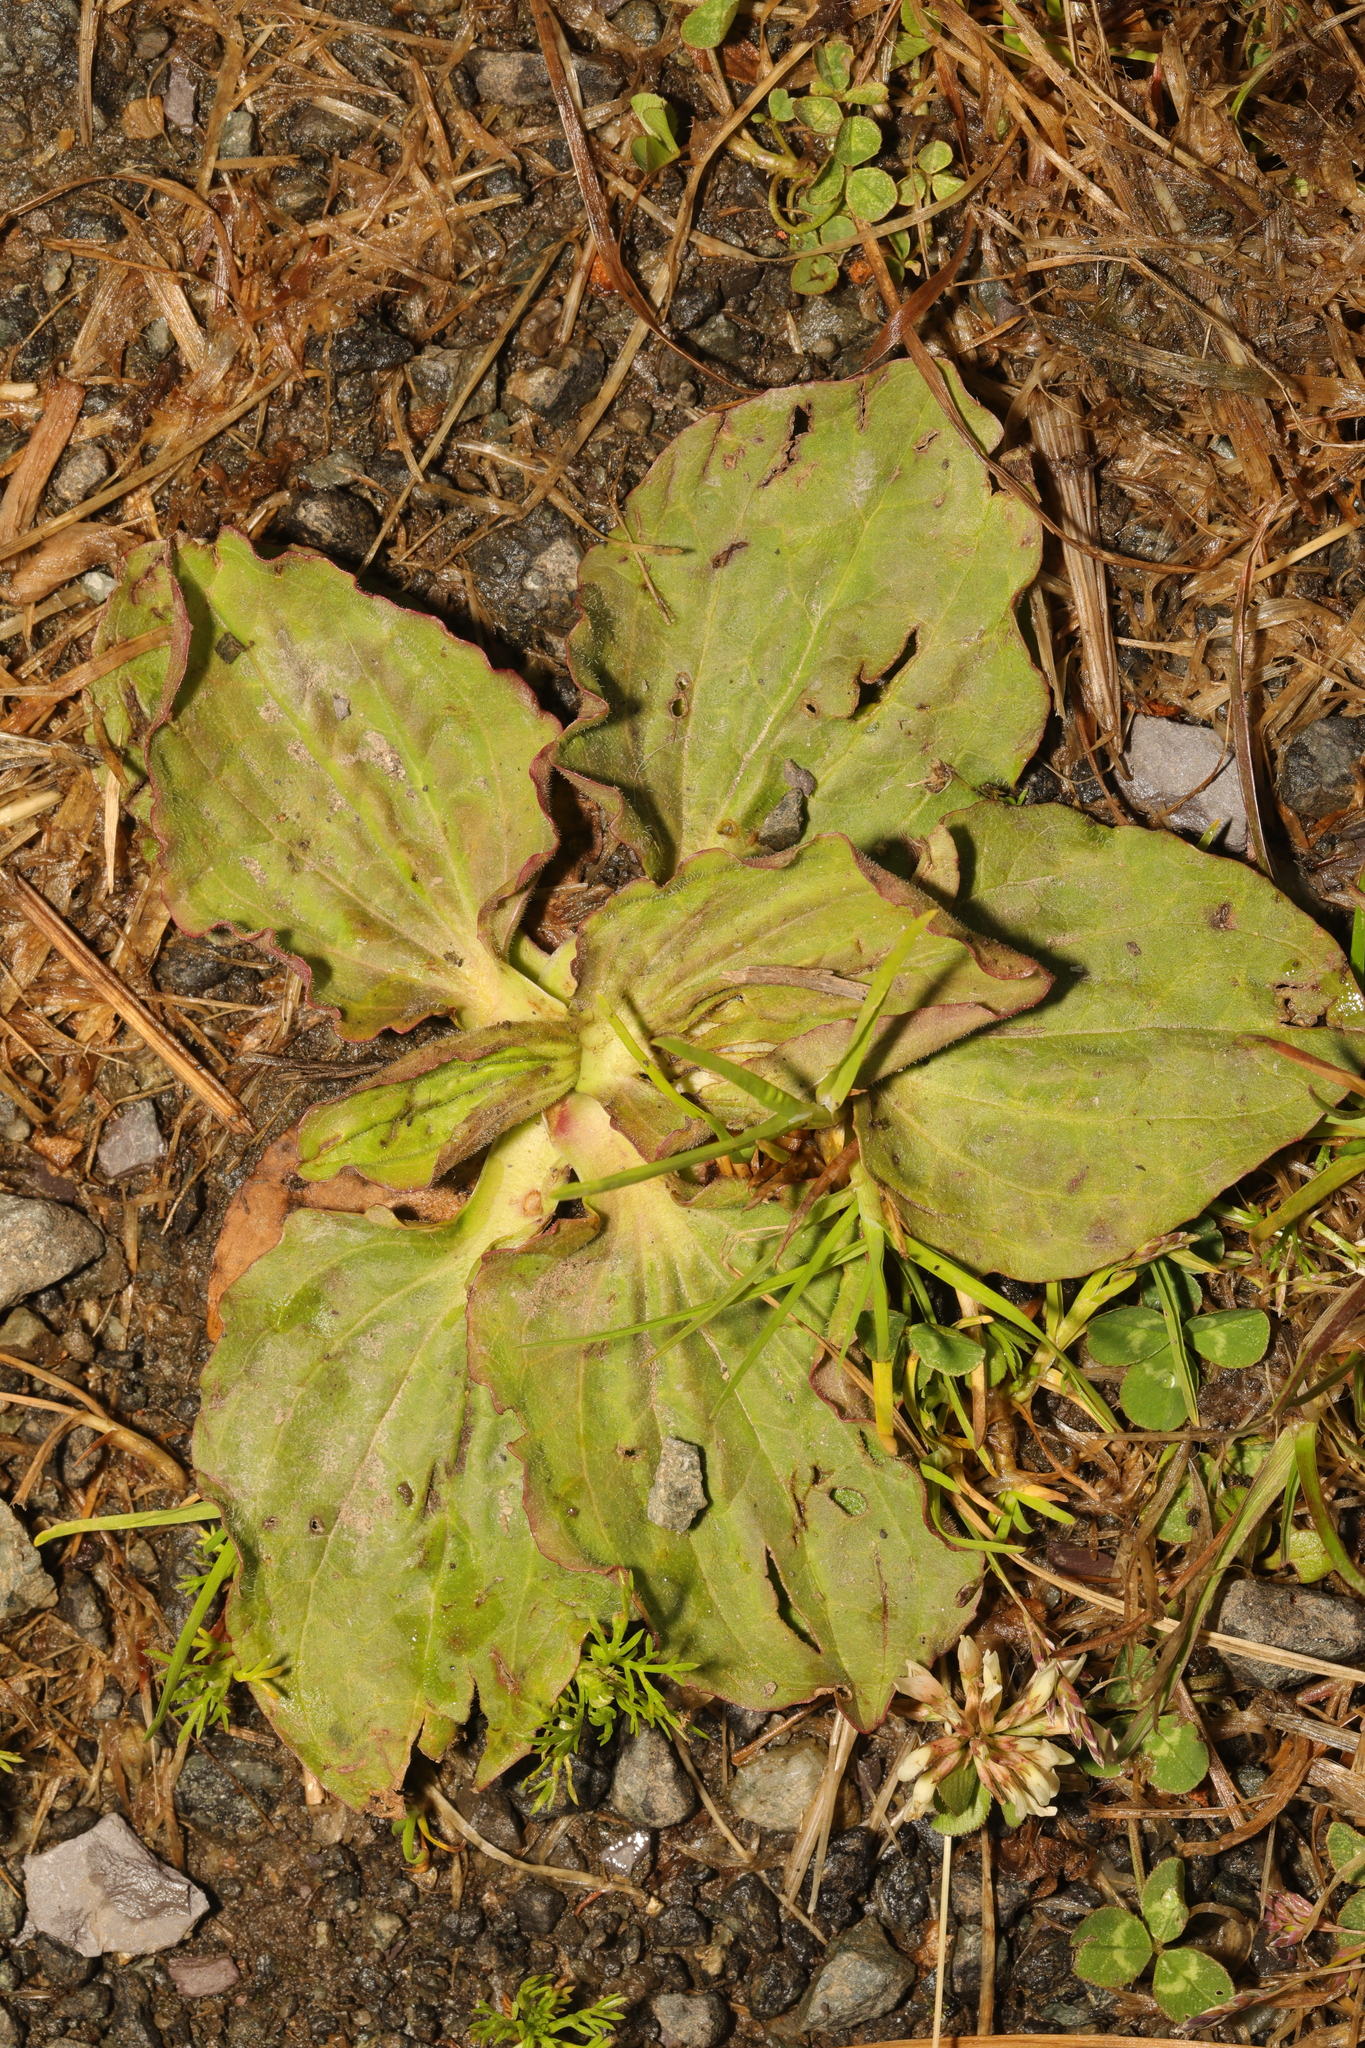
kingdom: Plantae
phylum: Tracheophyta
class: Magnoliopsida
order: Lamiales
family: Plantaginaceae
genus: Plantago
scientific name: Plantago major
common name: Common plantain
